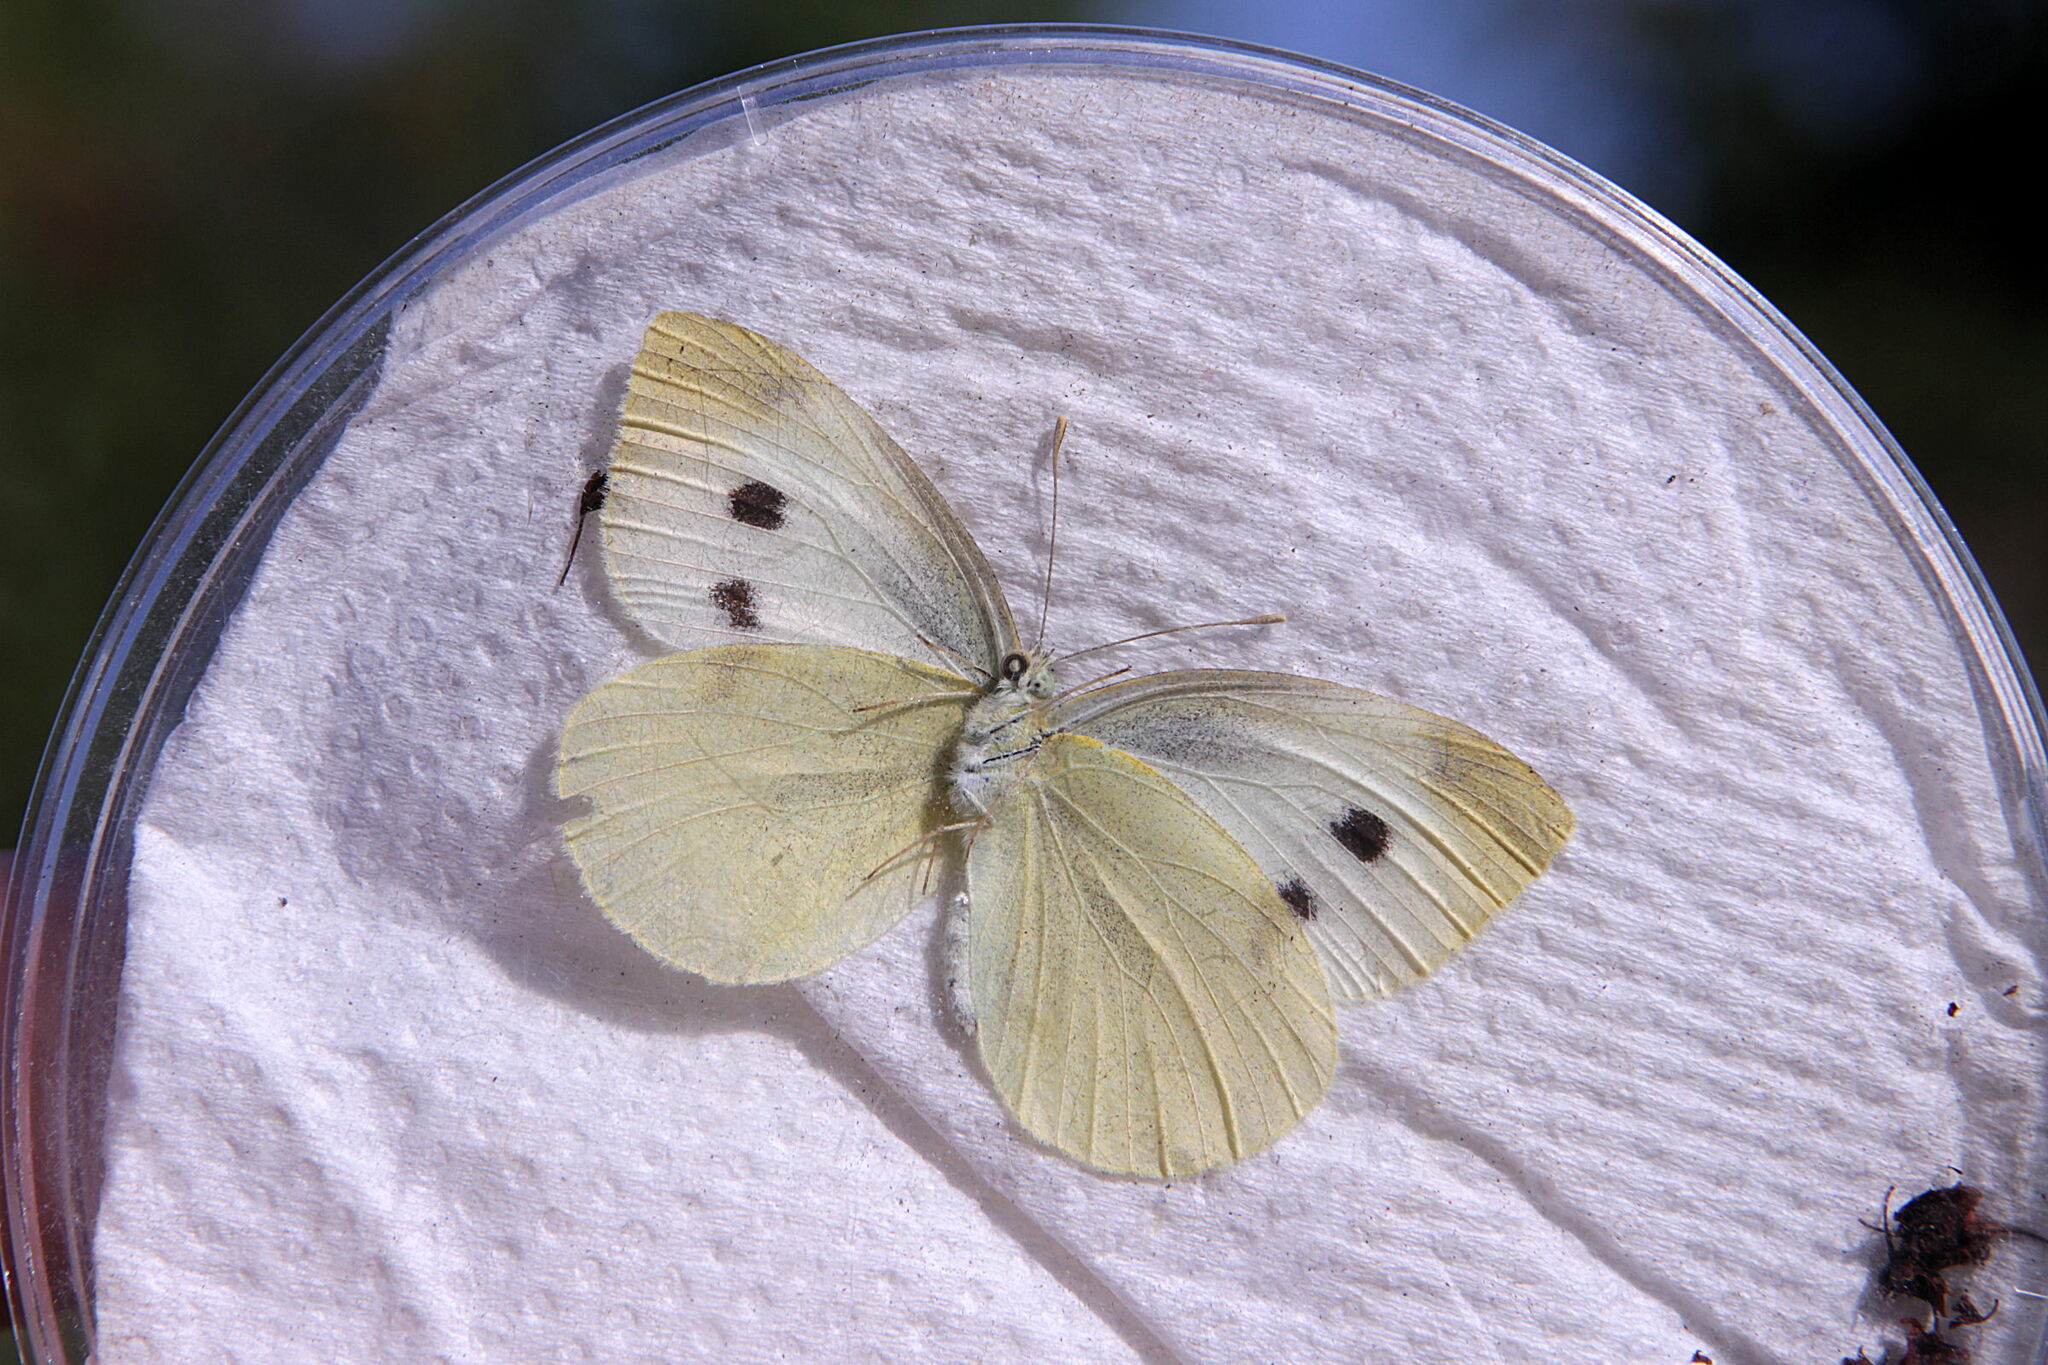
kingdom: Animalia
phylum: Arthropoda
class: Insecta
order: Lepidoptera
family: Pieridae
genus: Pieris
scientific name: Pieris rapae
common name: Small white
